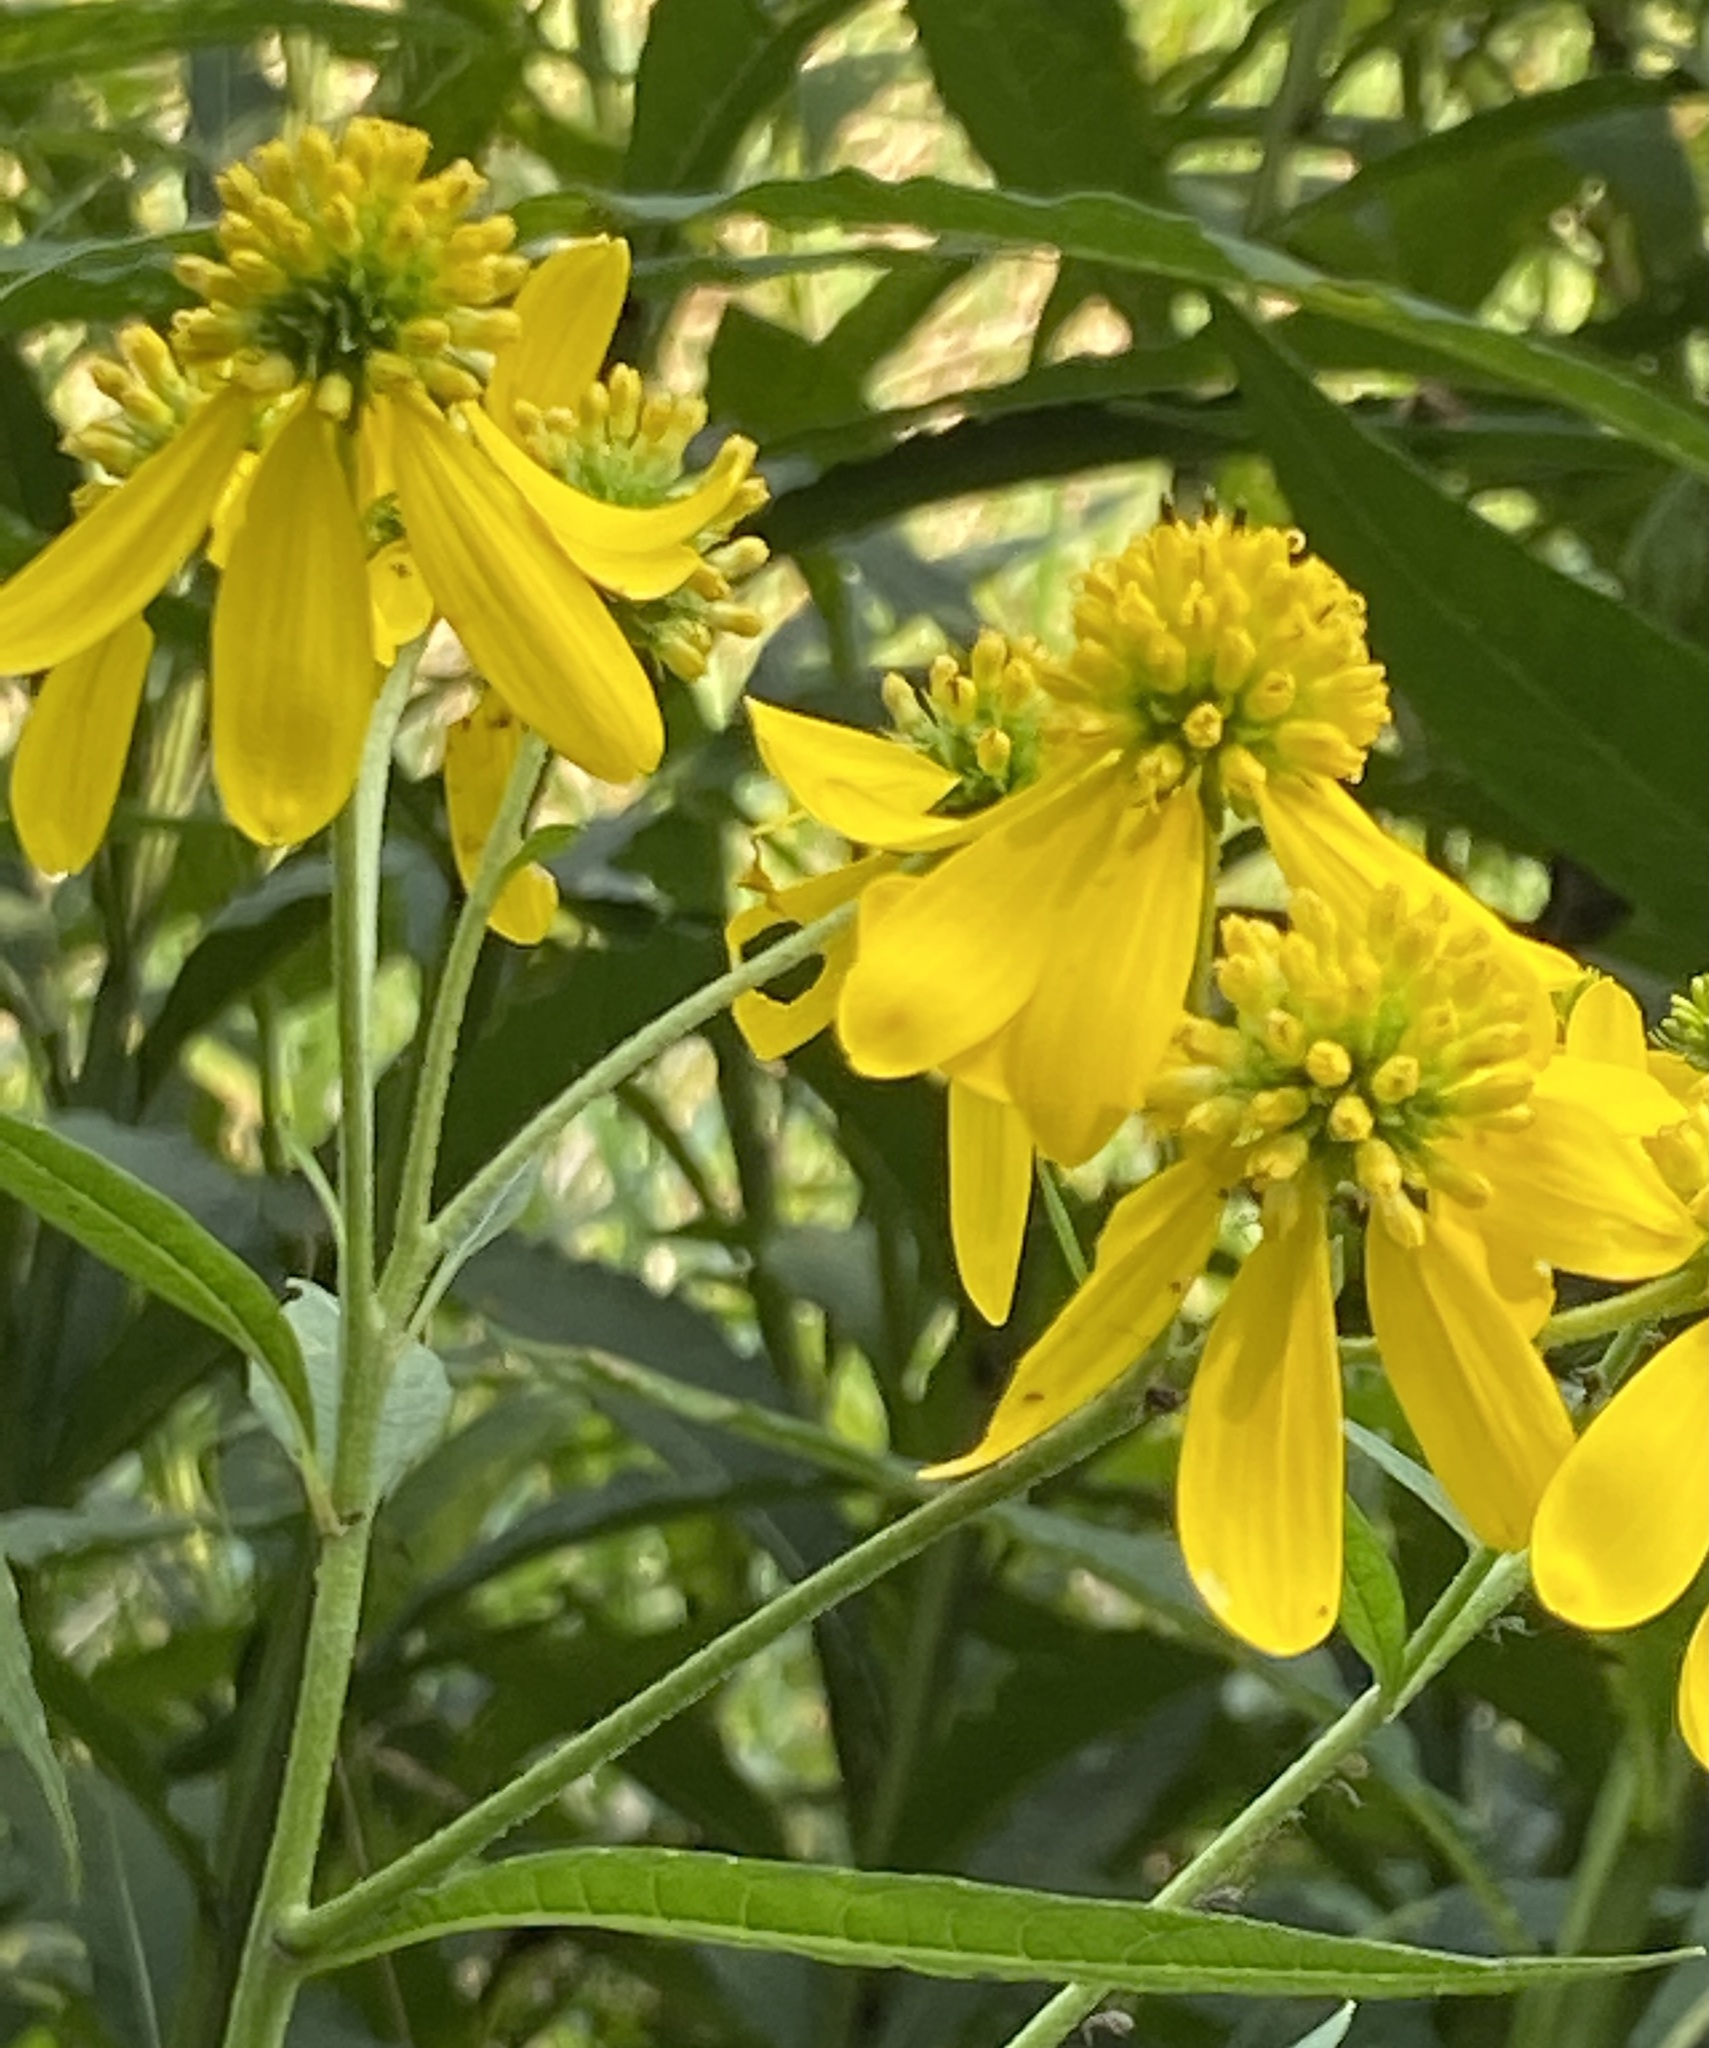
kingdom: Plantae
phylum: Tracheophyta
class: Magnoliopsida
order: Asterales
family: Asteraceae
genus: Verbesina
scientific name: Verbesina alternifolia
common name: Wingstem
